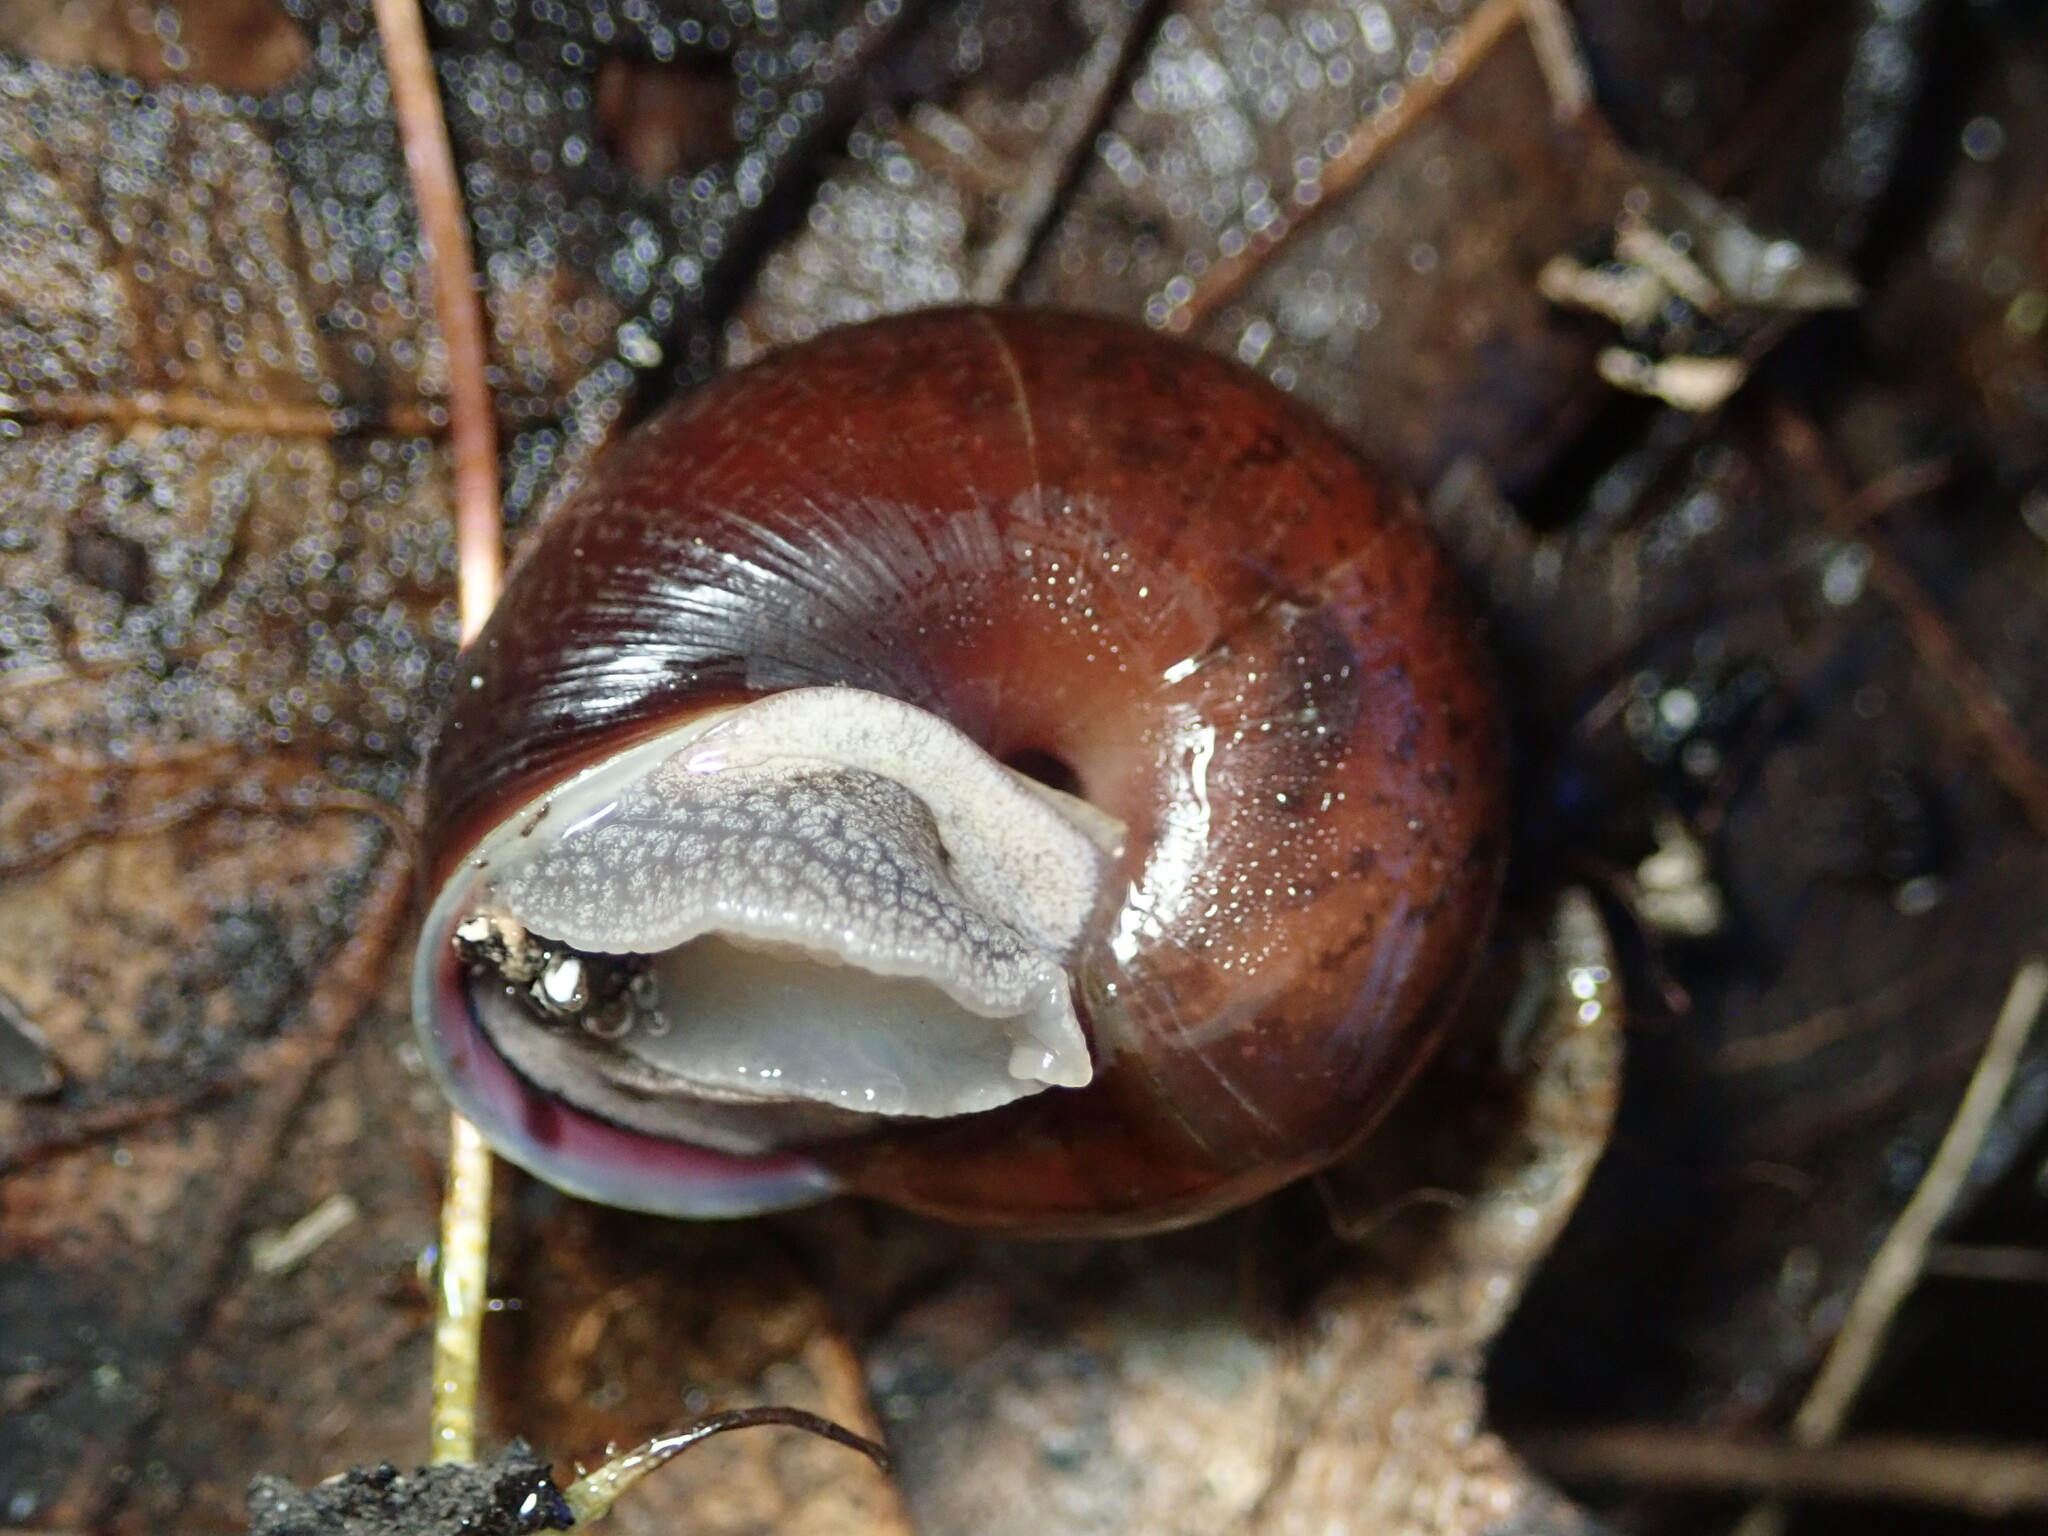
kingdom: Animalia
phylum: Mollusca
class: Gastropoda
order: Stylommatophora
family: Xanthonychidae
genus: Helminthoglypta
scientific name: Helminthoglypta sonoma
